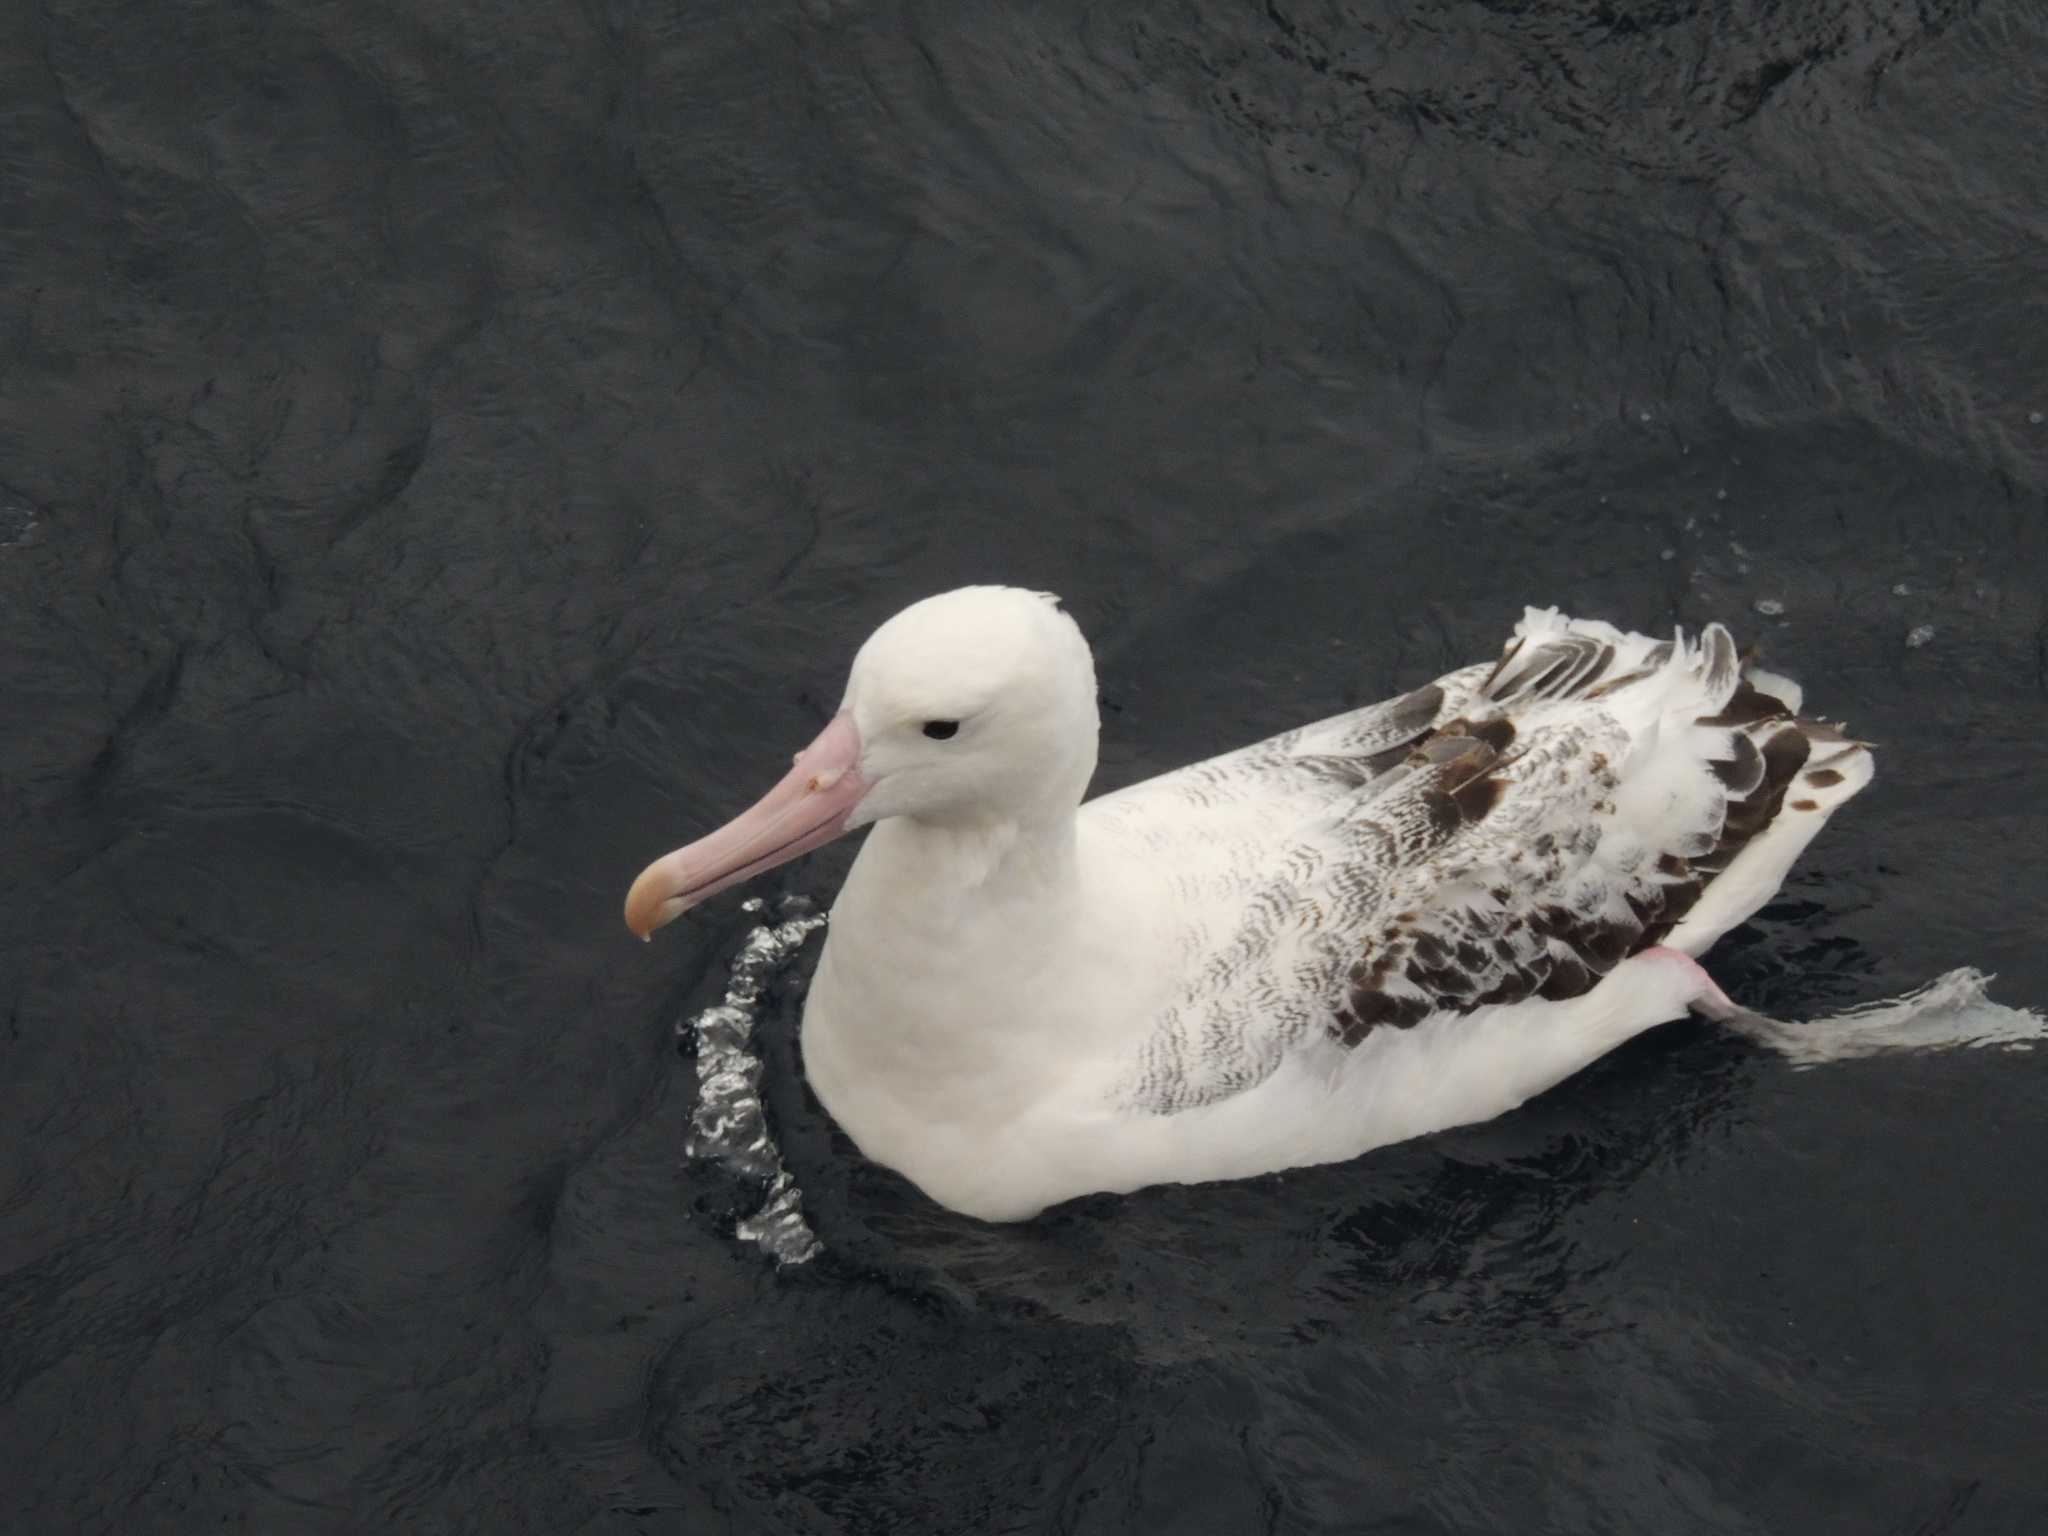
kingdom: Animalia
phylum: Chordata
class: Aves
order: Procellariiformes
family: Diomedeidae
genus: Diomedea
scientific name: Diomedea epomophora
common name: Southern royal albatross
